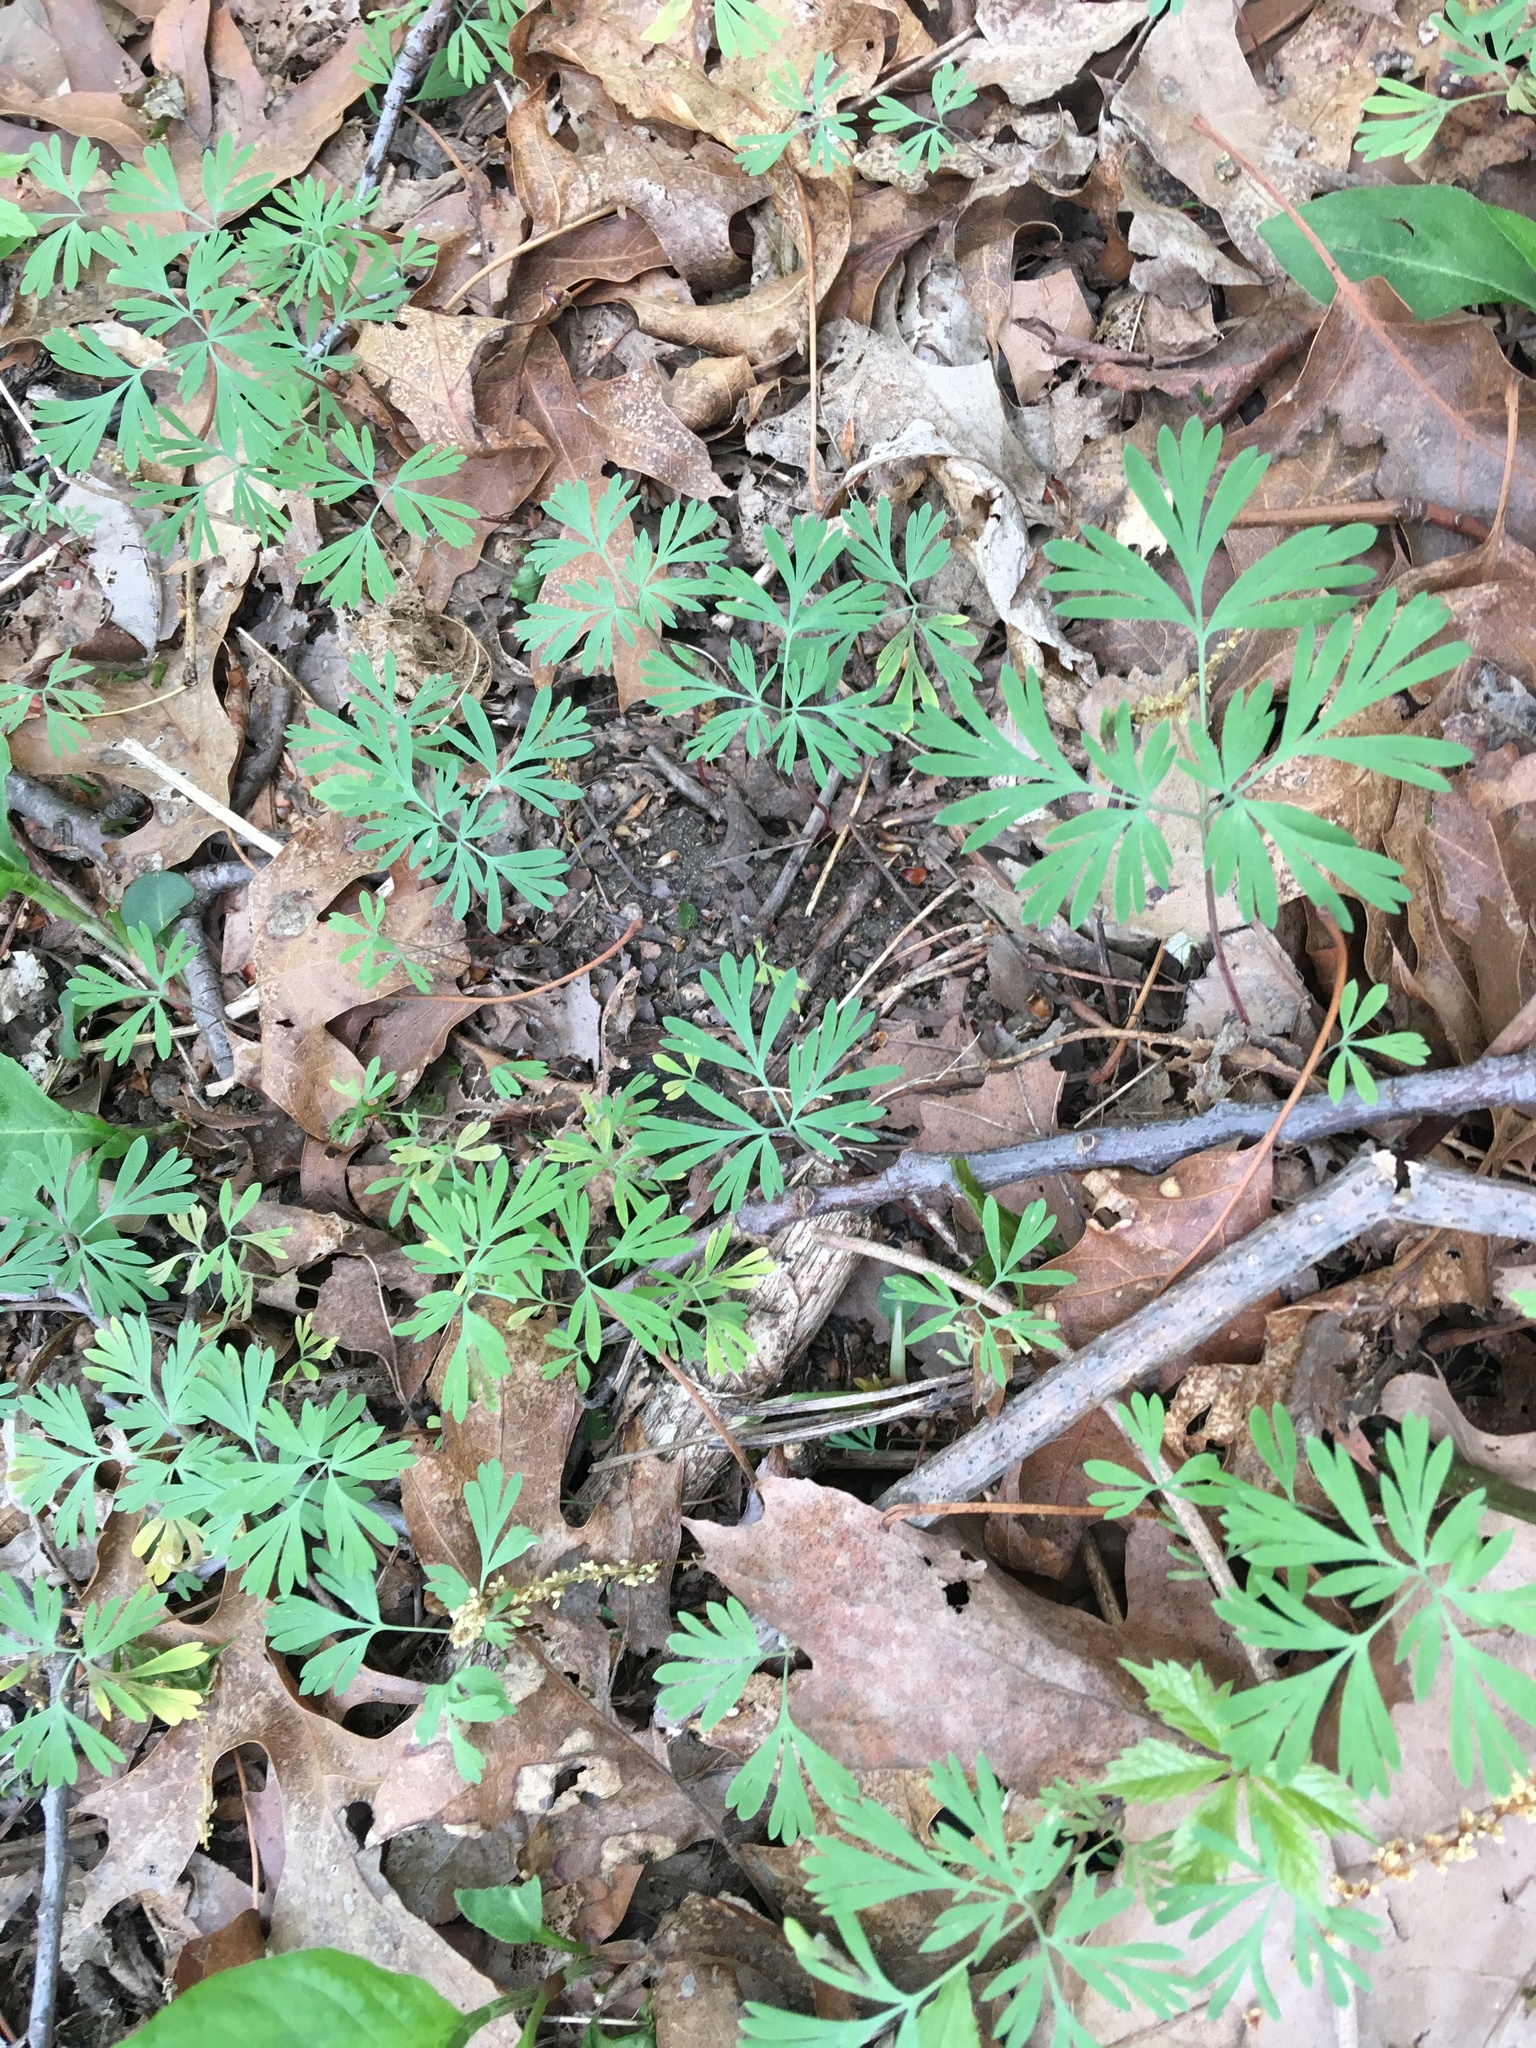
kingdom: Plantae
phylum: Tracheophyta
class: Magnoliopsida
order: Ranunculales
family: Papaveraceae
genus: Dicentra
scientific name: Dicentra cucullaria
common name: Dutchman's breeches
